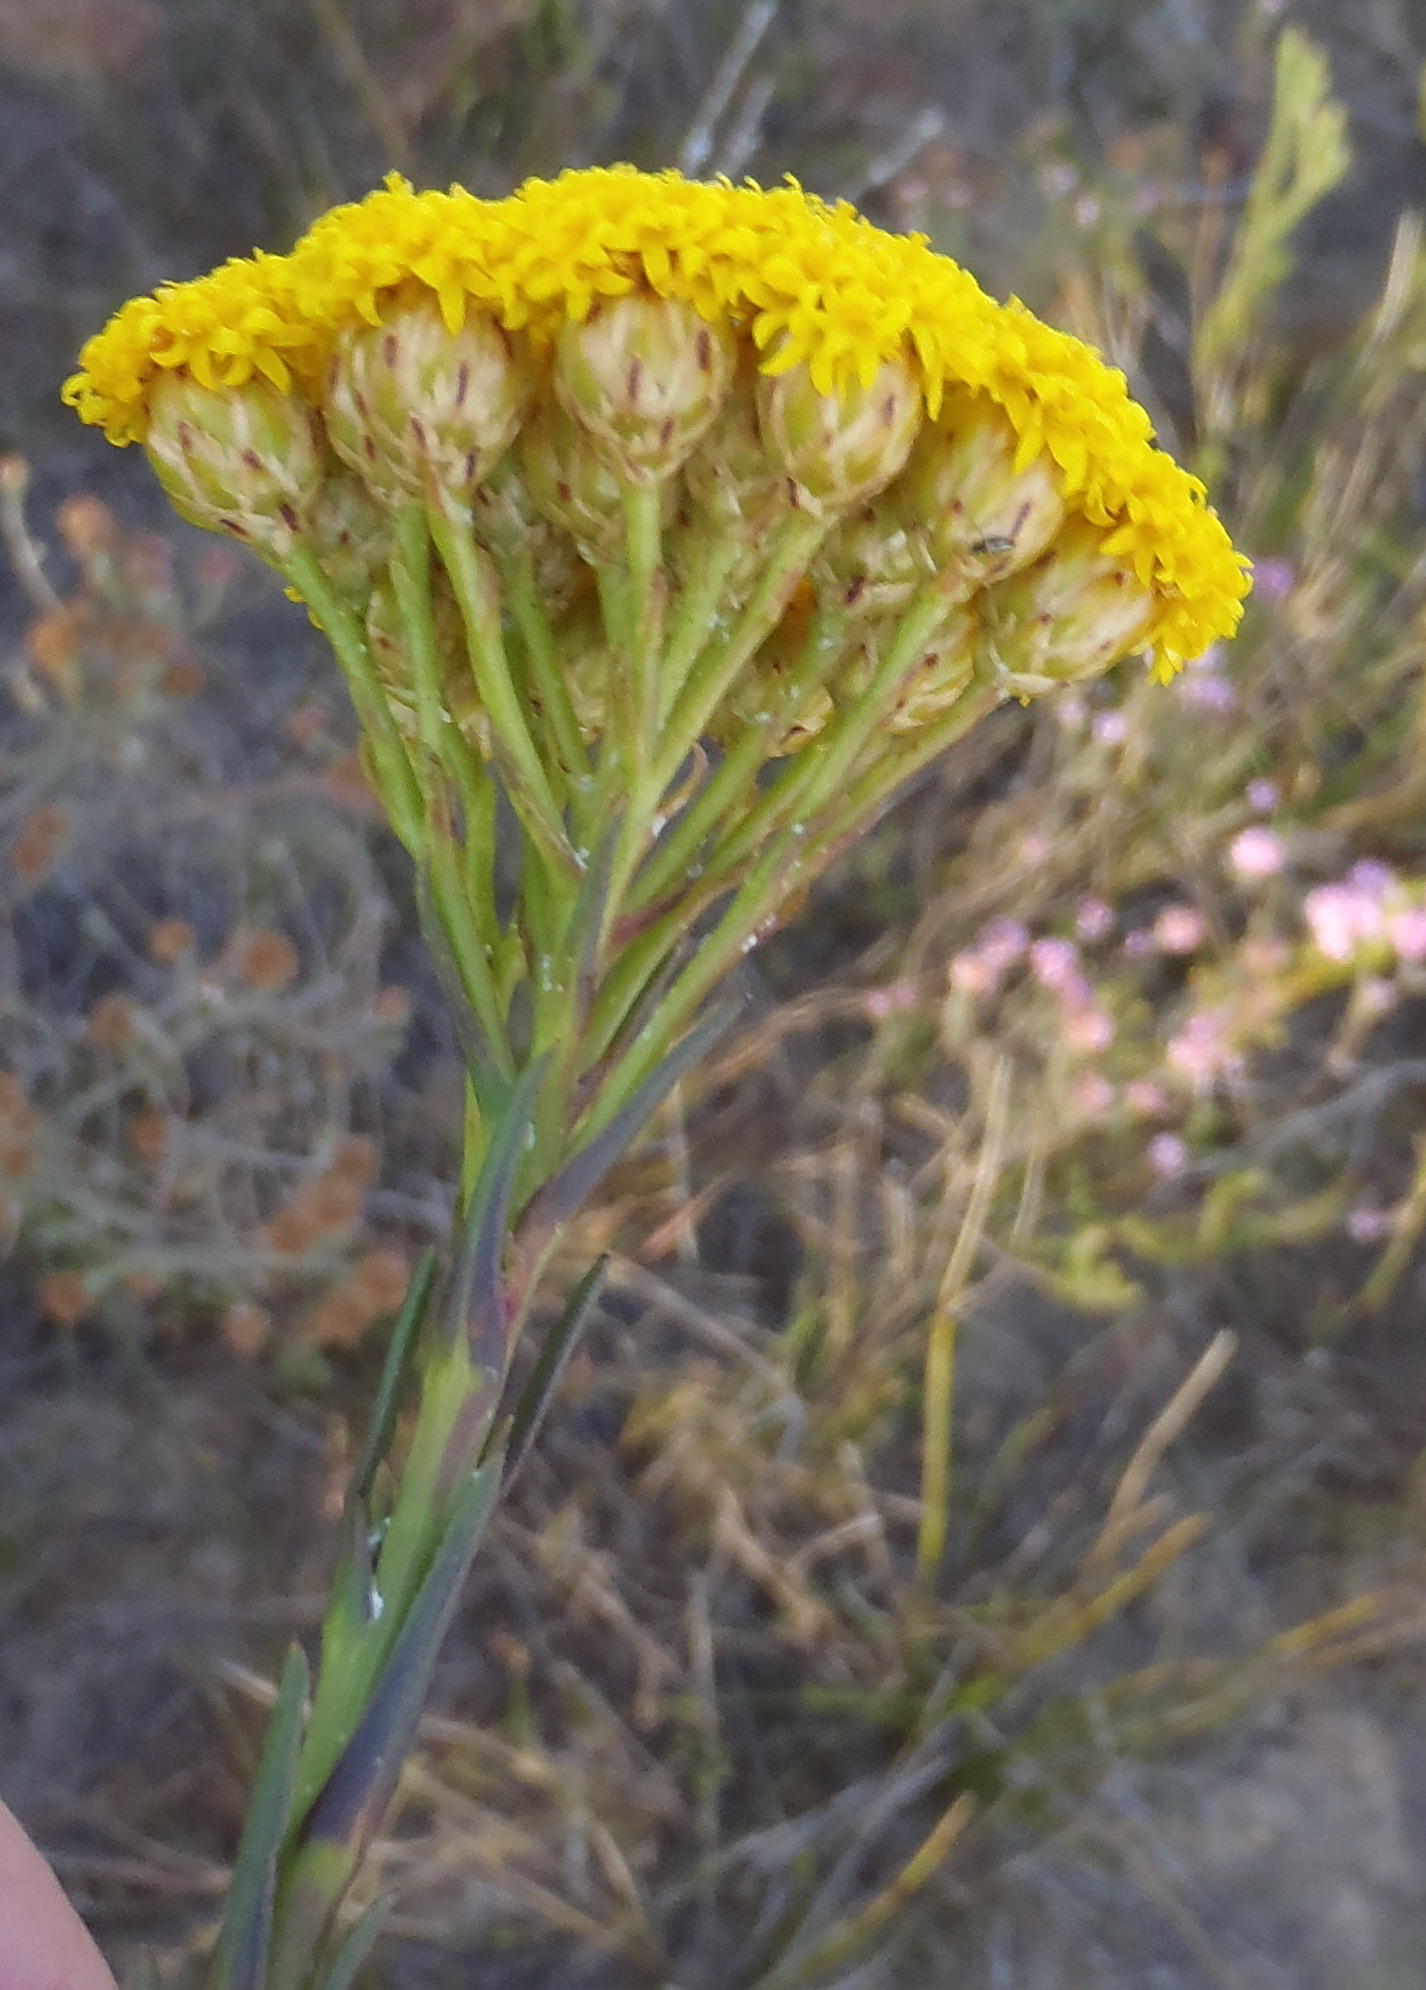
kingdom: Plantae
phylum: Tracheophyta
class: Magnoliopsida
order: Asterales
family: Asteraceae
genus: Athanasia
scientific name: Athanasia linifolia
